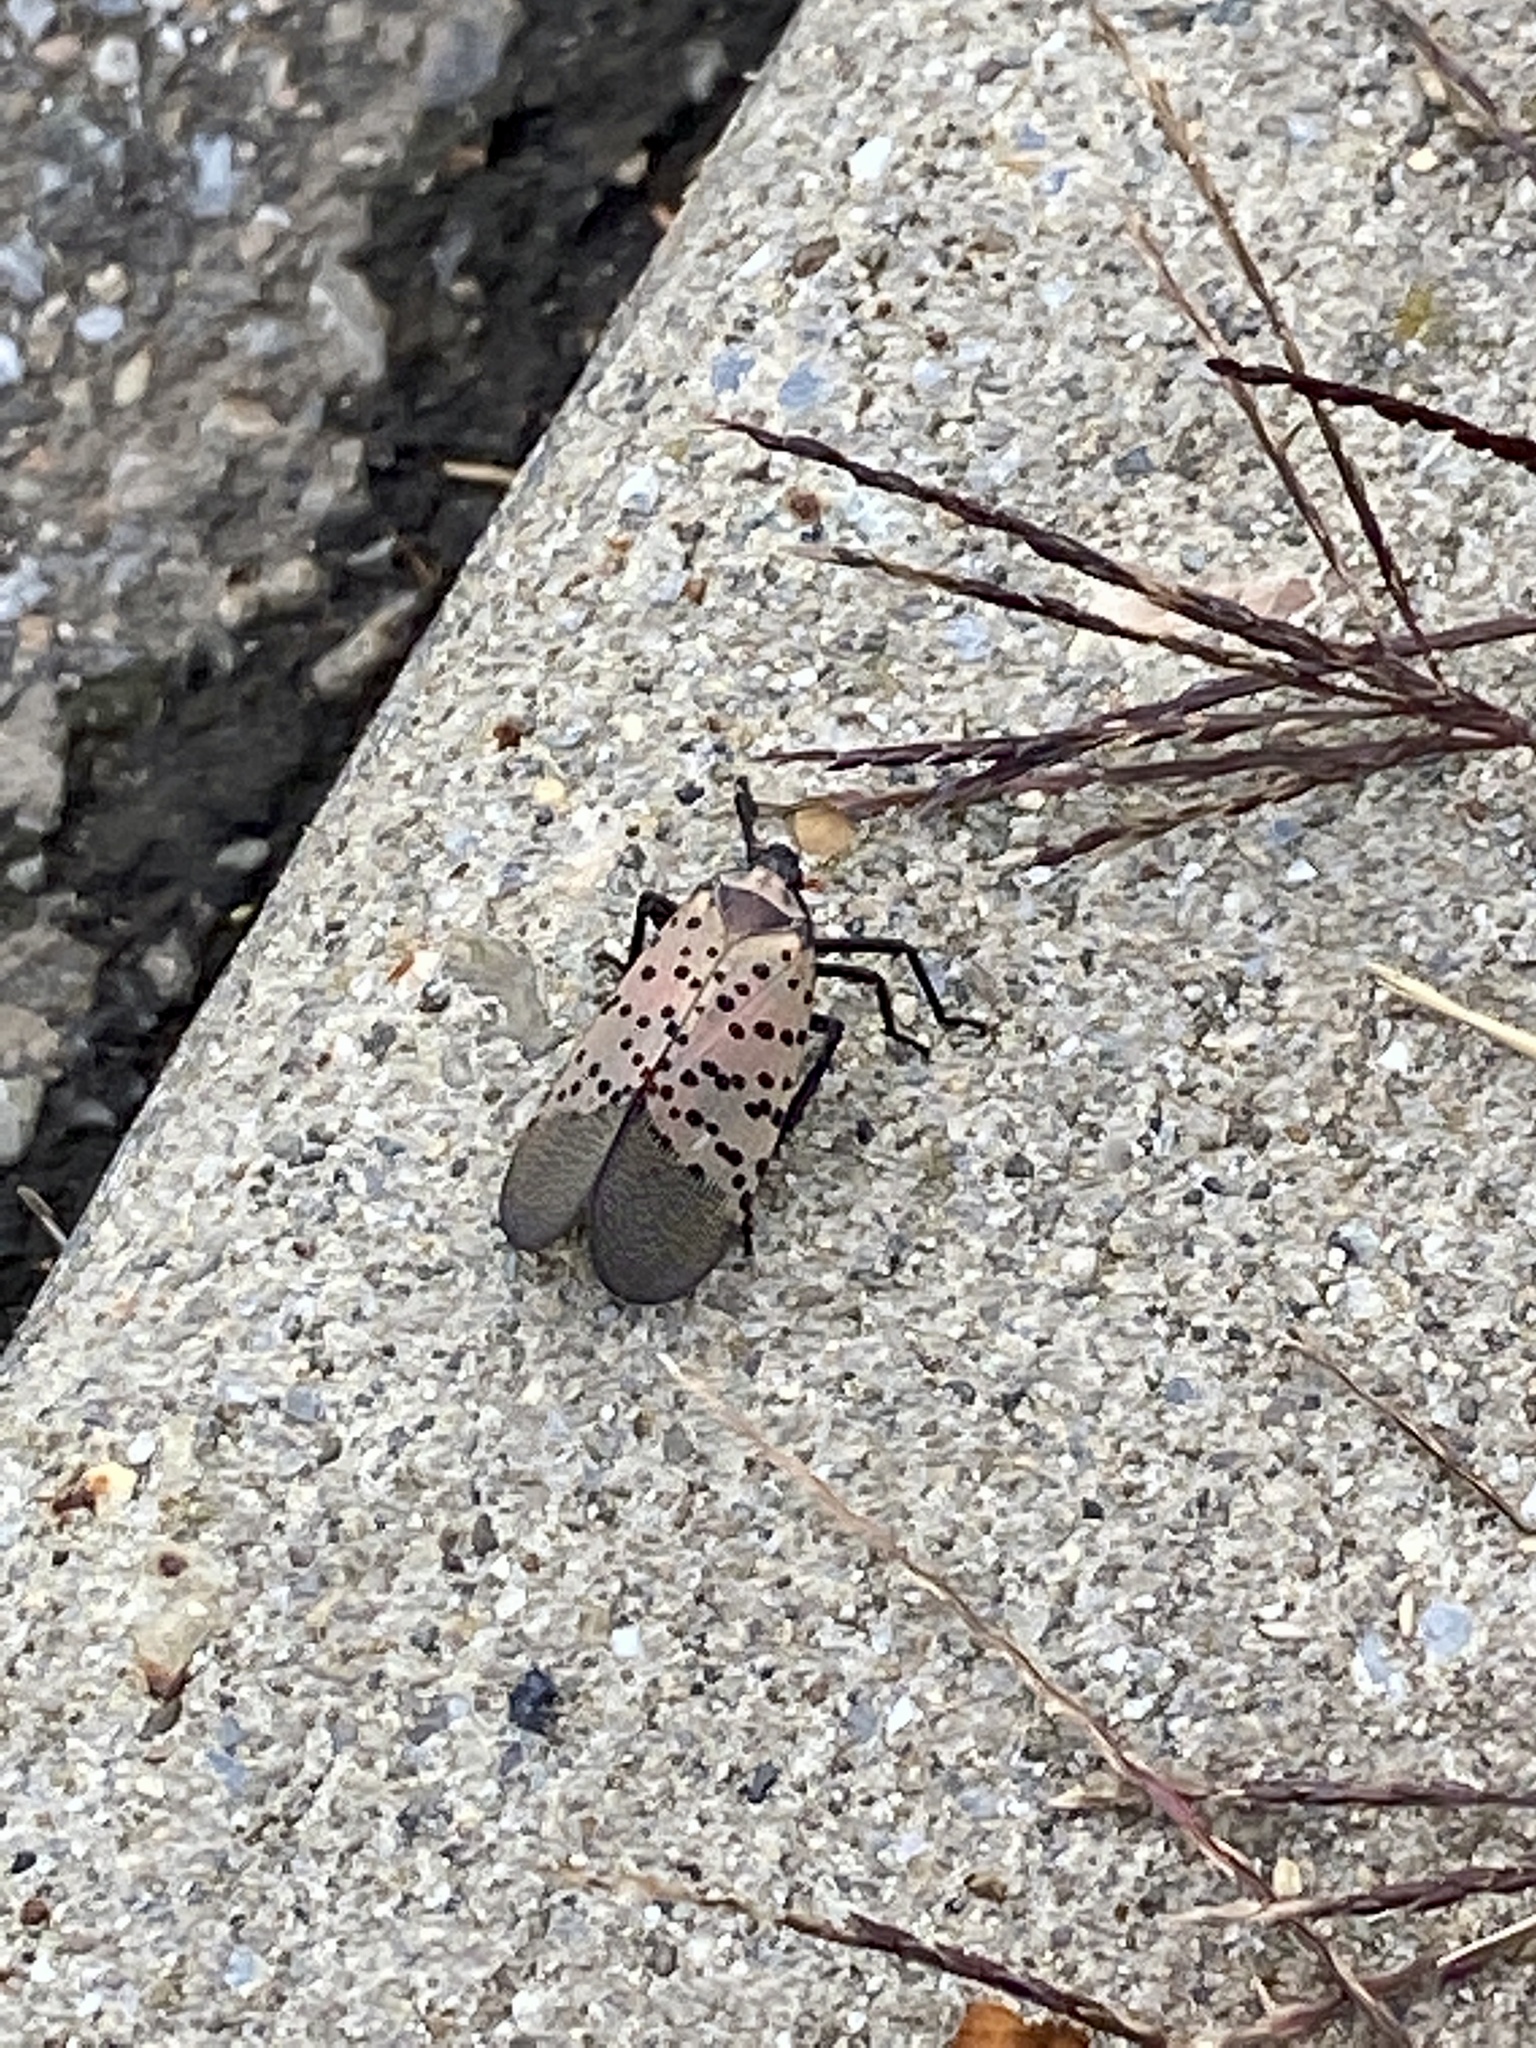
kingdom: Animalia
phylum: Arthropoda
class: Insecta
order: Hemiptera
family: Fulgoridae
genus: Lycorma
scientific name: Lycorma delicatula
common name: Spotted lanternfly
